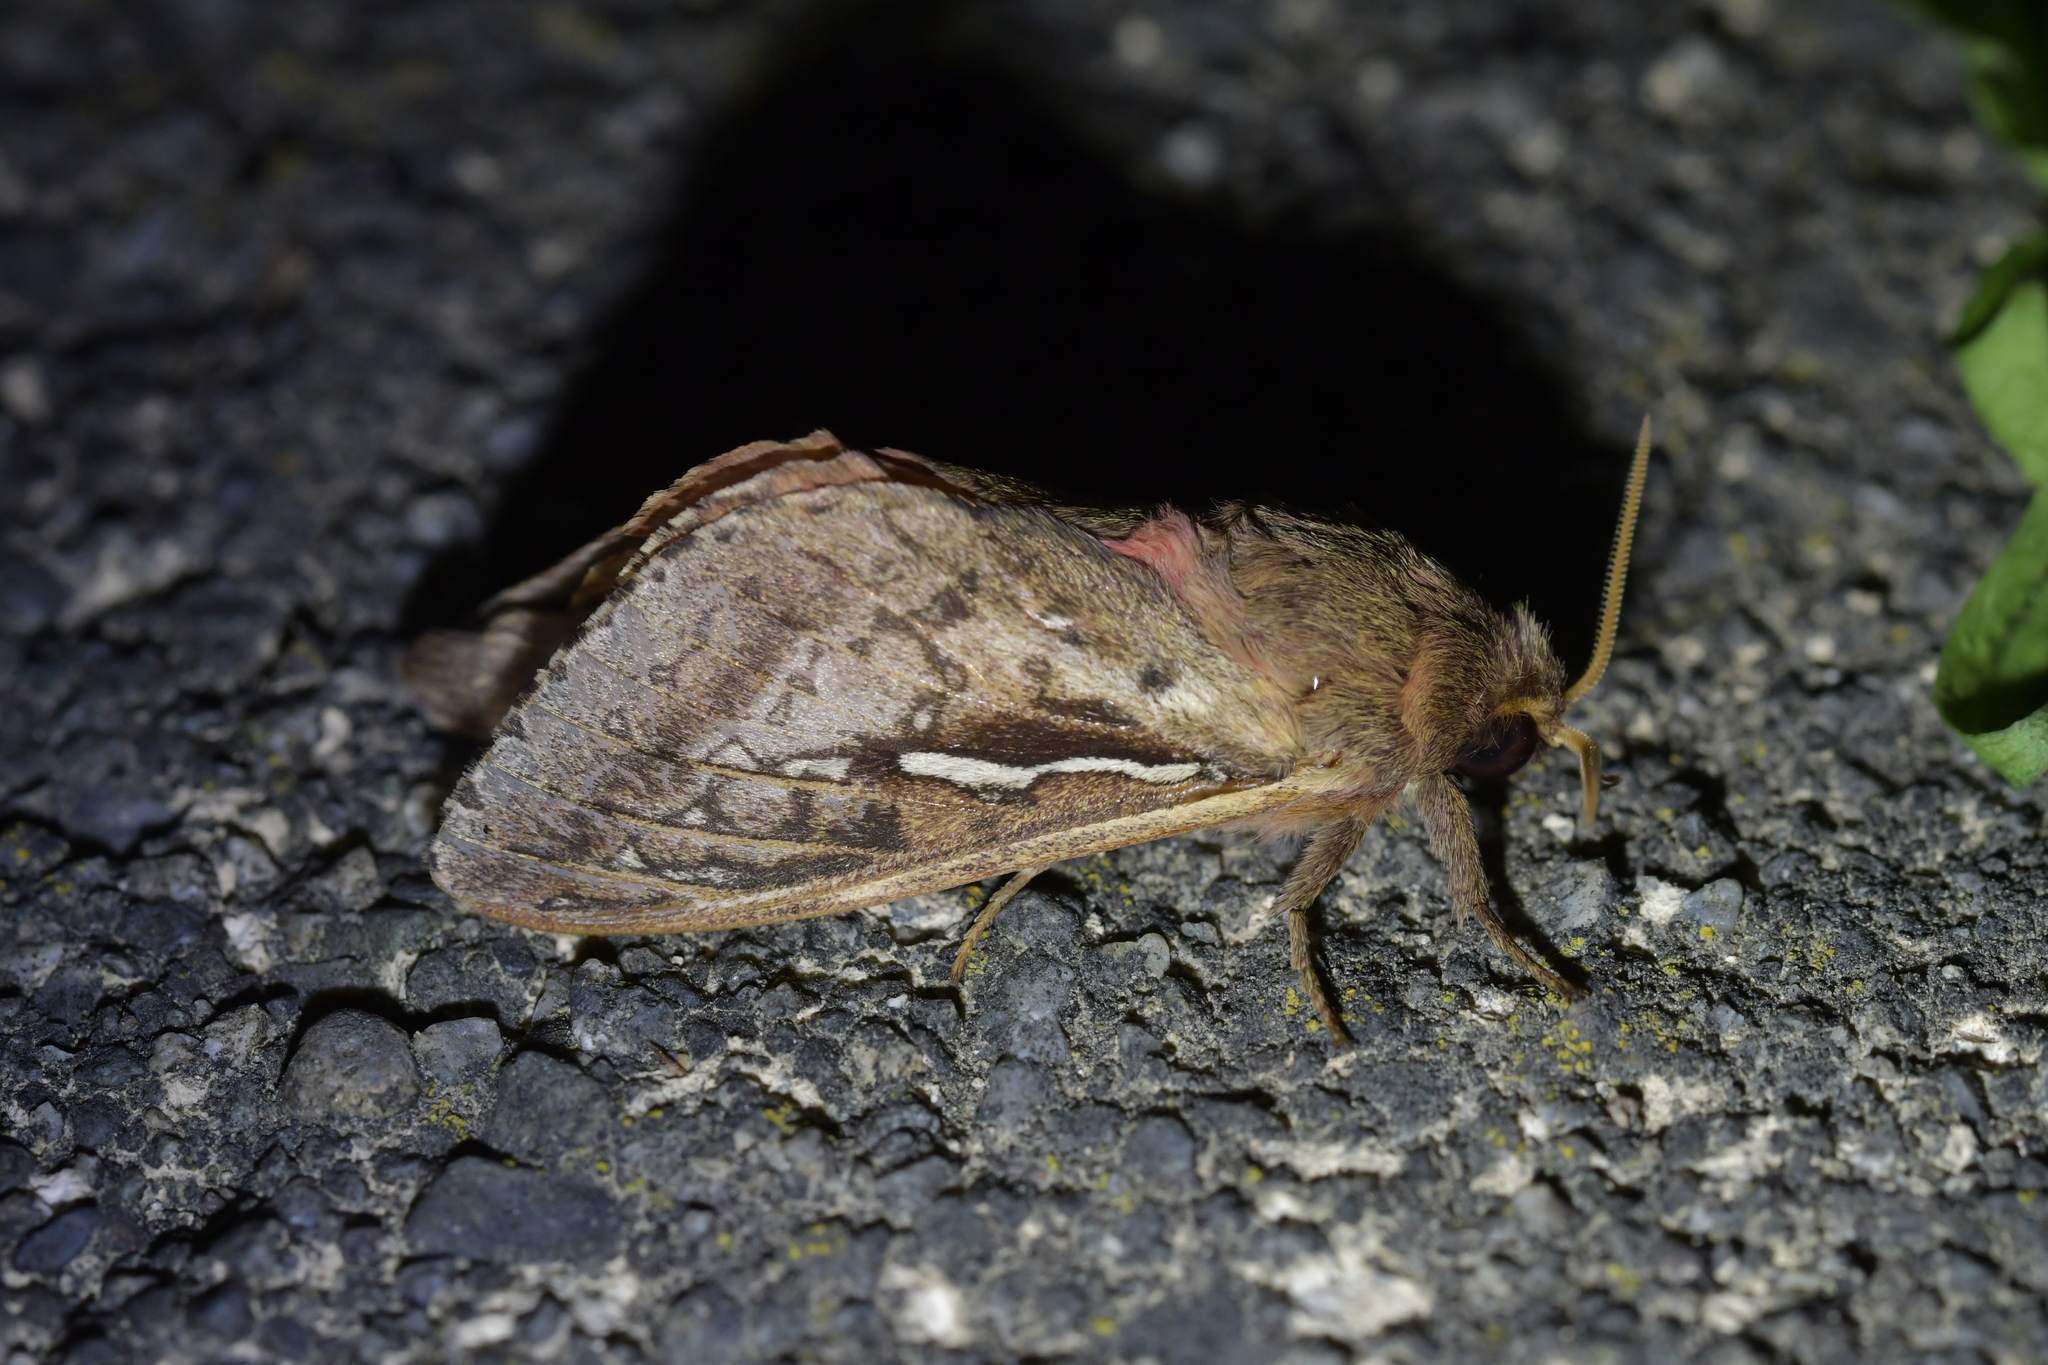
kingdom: Animalia
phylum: Arthropoda
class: Insecta
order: Lepidoptera
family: Hepialidae
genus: Wiseana
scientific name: Wiseana signata
